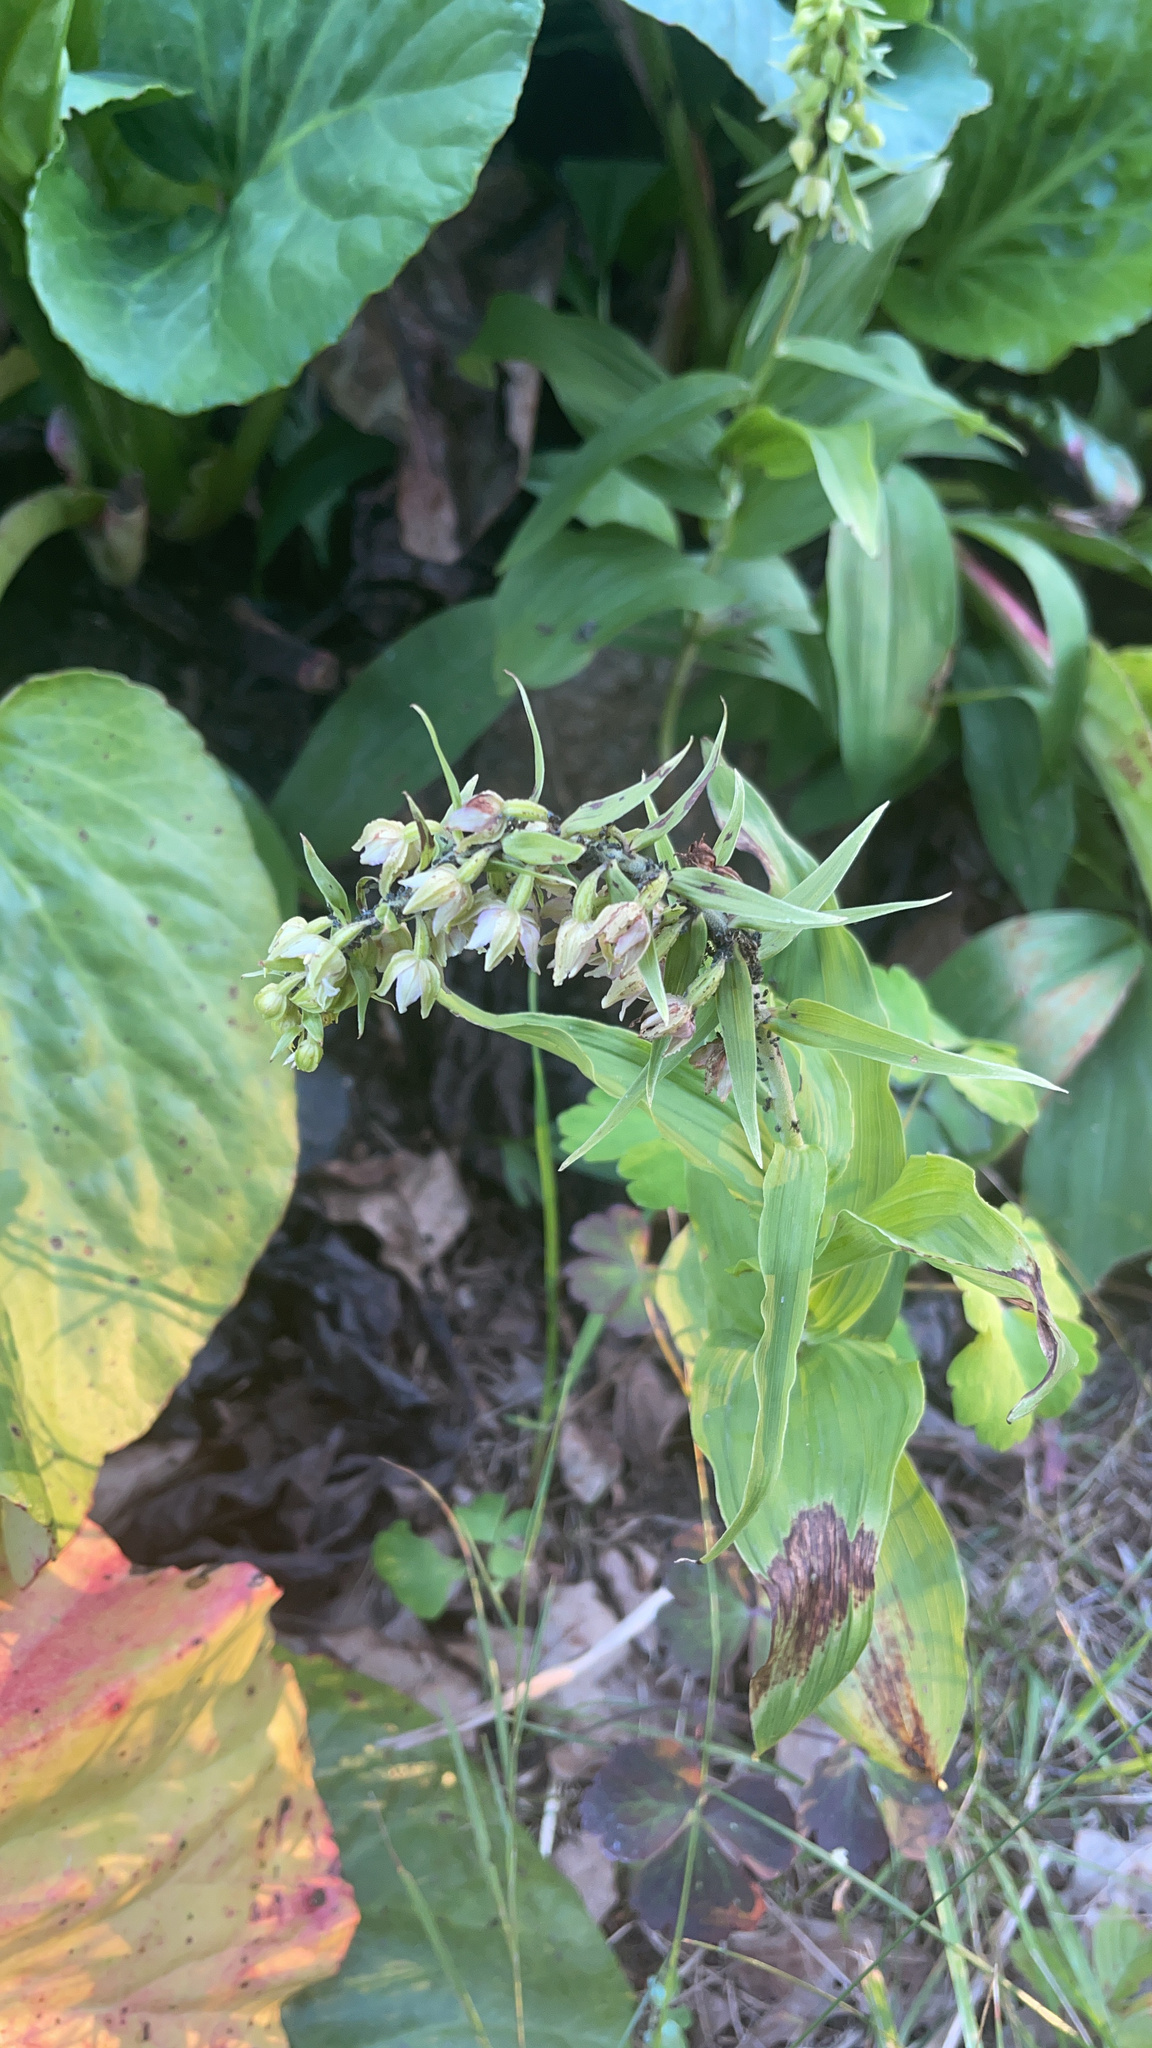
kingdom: Plantae
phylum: Tracheophyta
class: Liliopsida
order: Asparagales
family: Orchidaceae
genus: Epipactis
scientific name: Epipactis helleborine
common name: Broad-leaved helleborine
